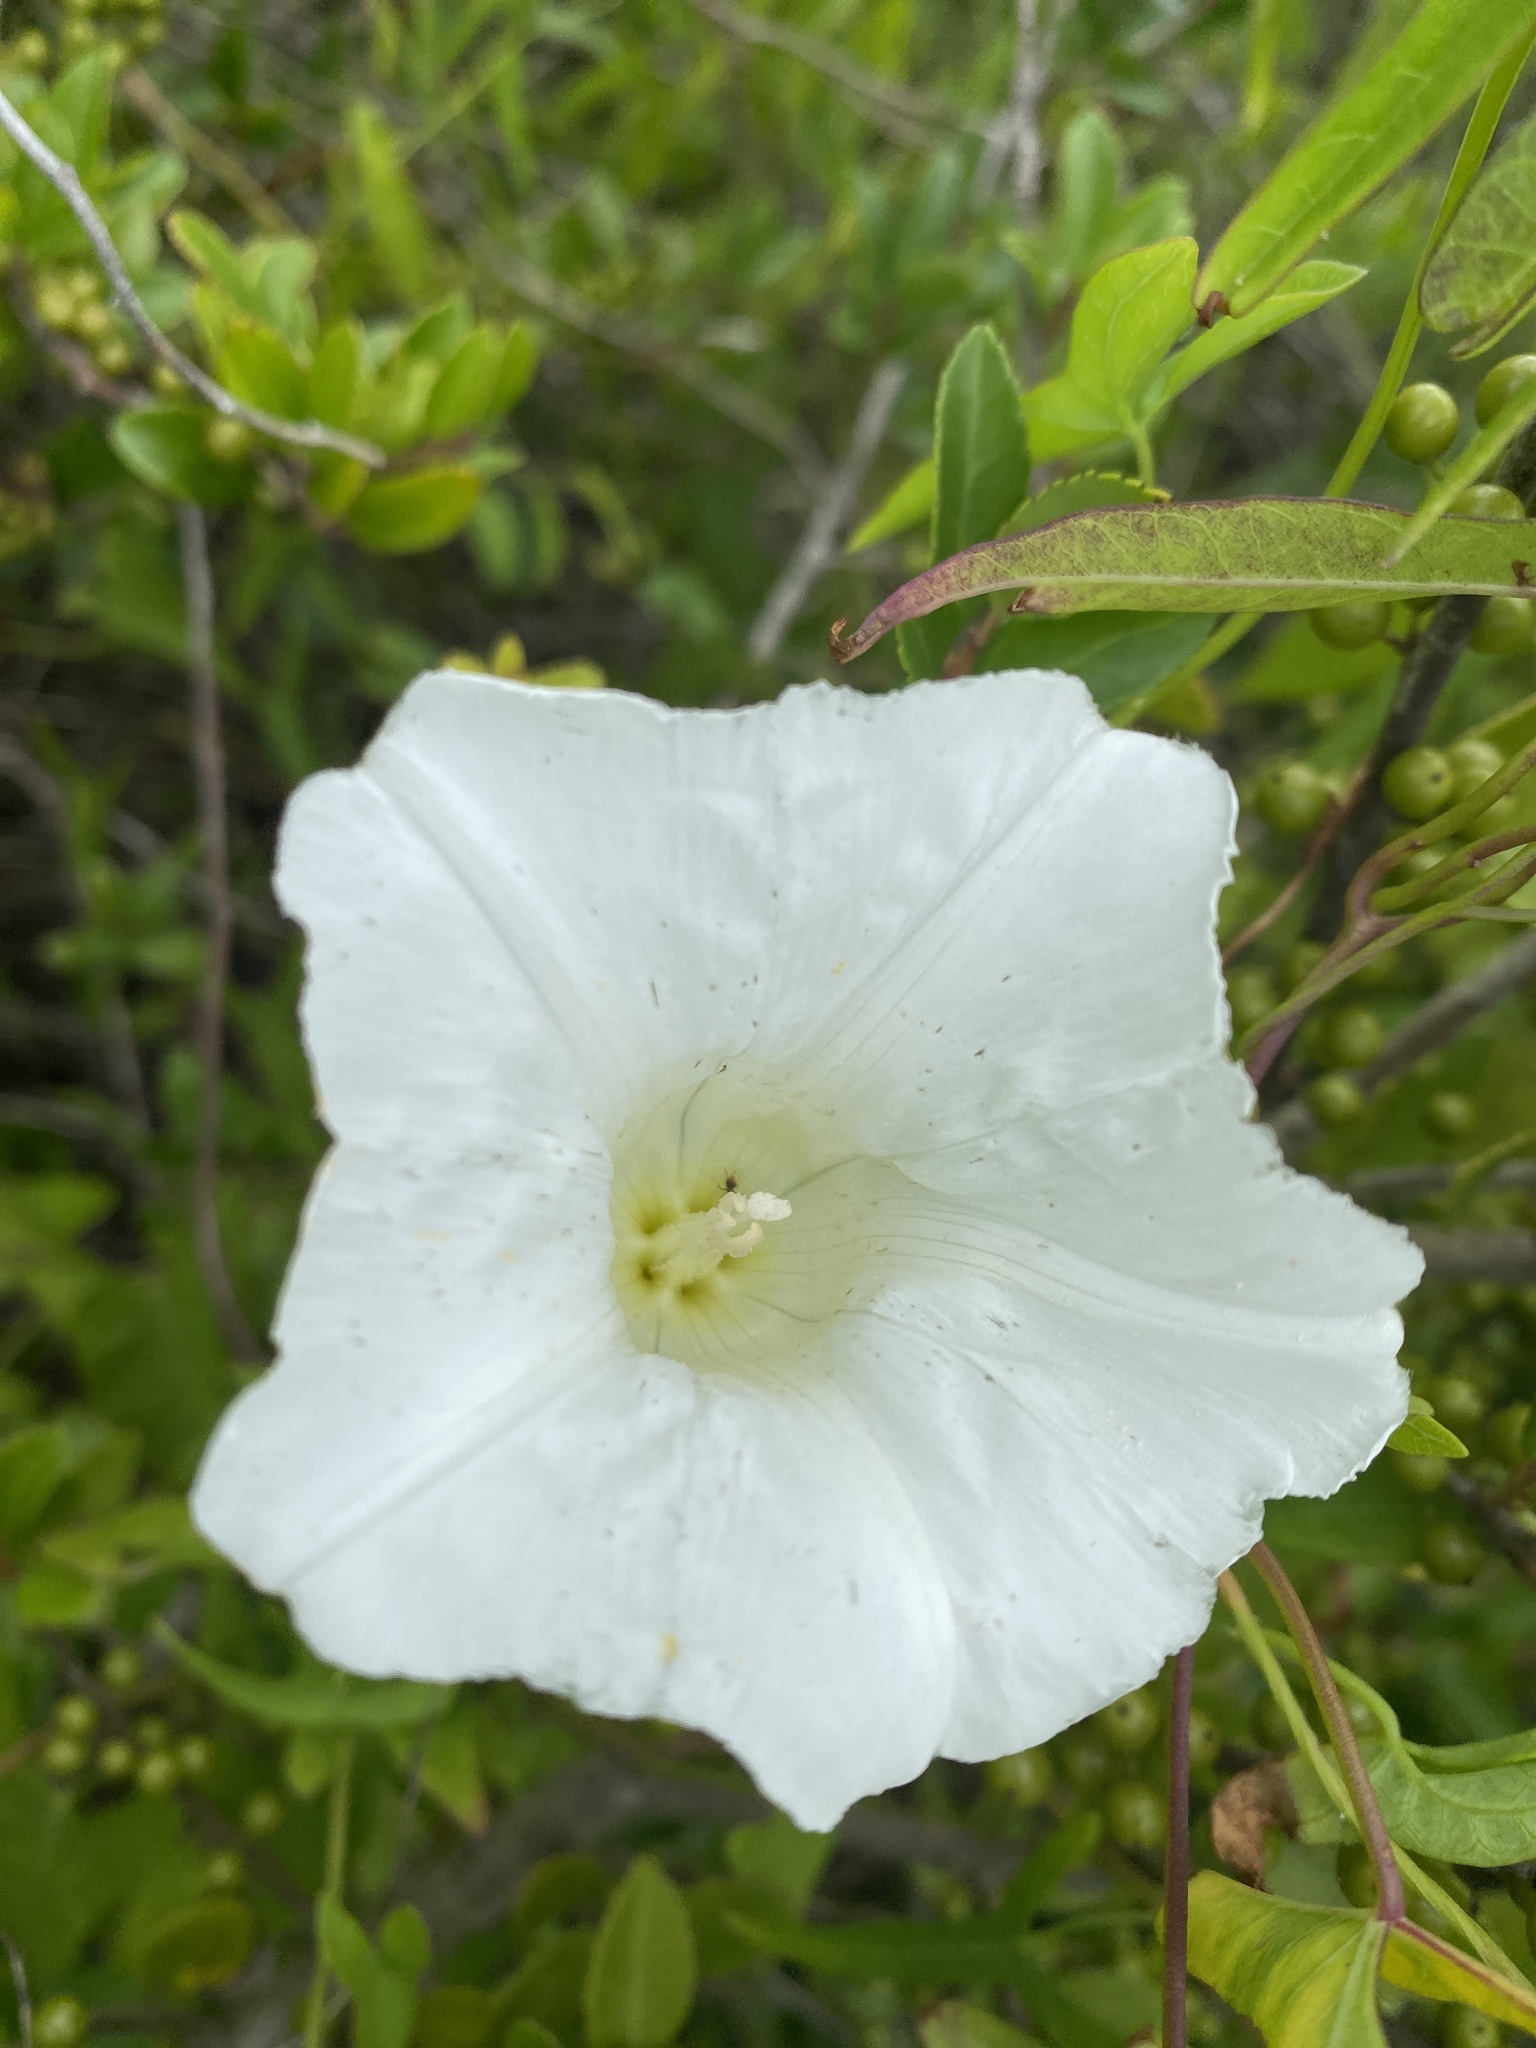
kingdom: Plantae
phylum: Tracheophyta
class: Magnoliopsida
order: Solanales
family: Convolvulaceae
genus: Calystegia
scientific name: Calystegia sepium
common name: Hedge bindweed
